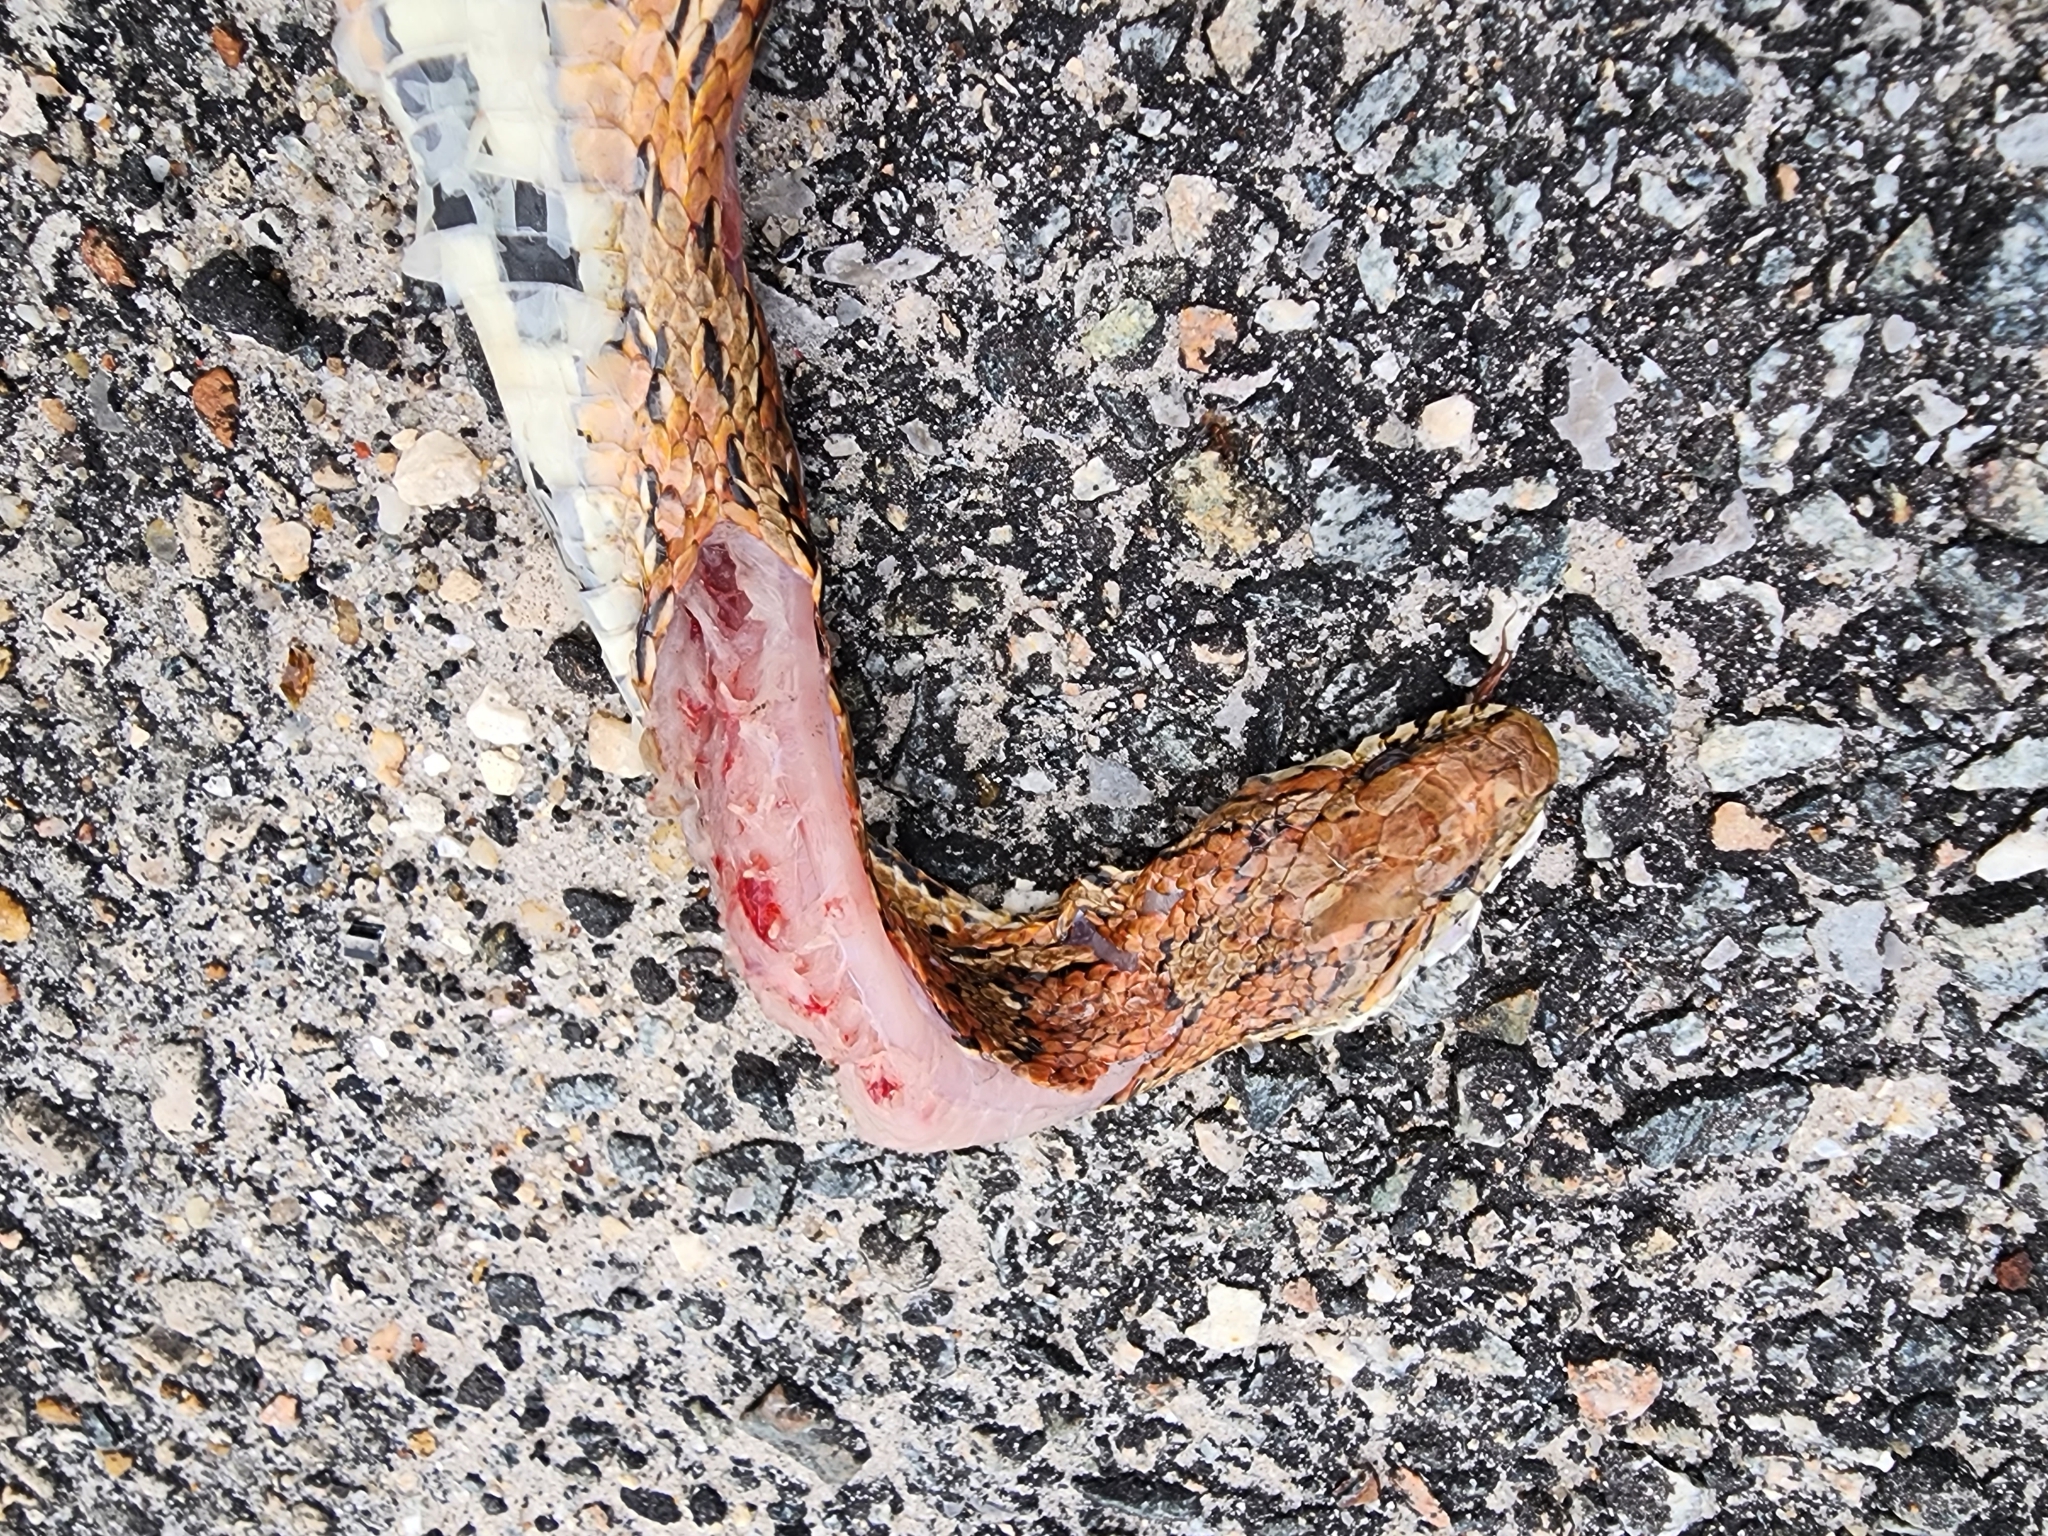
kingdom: Animalia
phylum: Chordata
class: Squamata
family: Colubridae
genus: Pantherophis
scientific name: Pantherophis guttatus
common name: Red cornsnake
